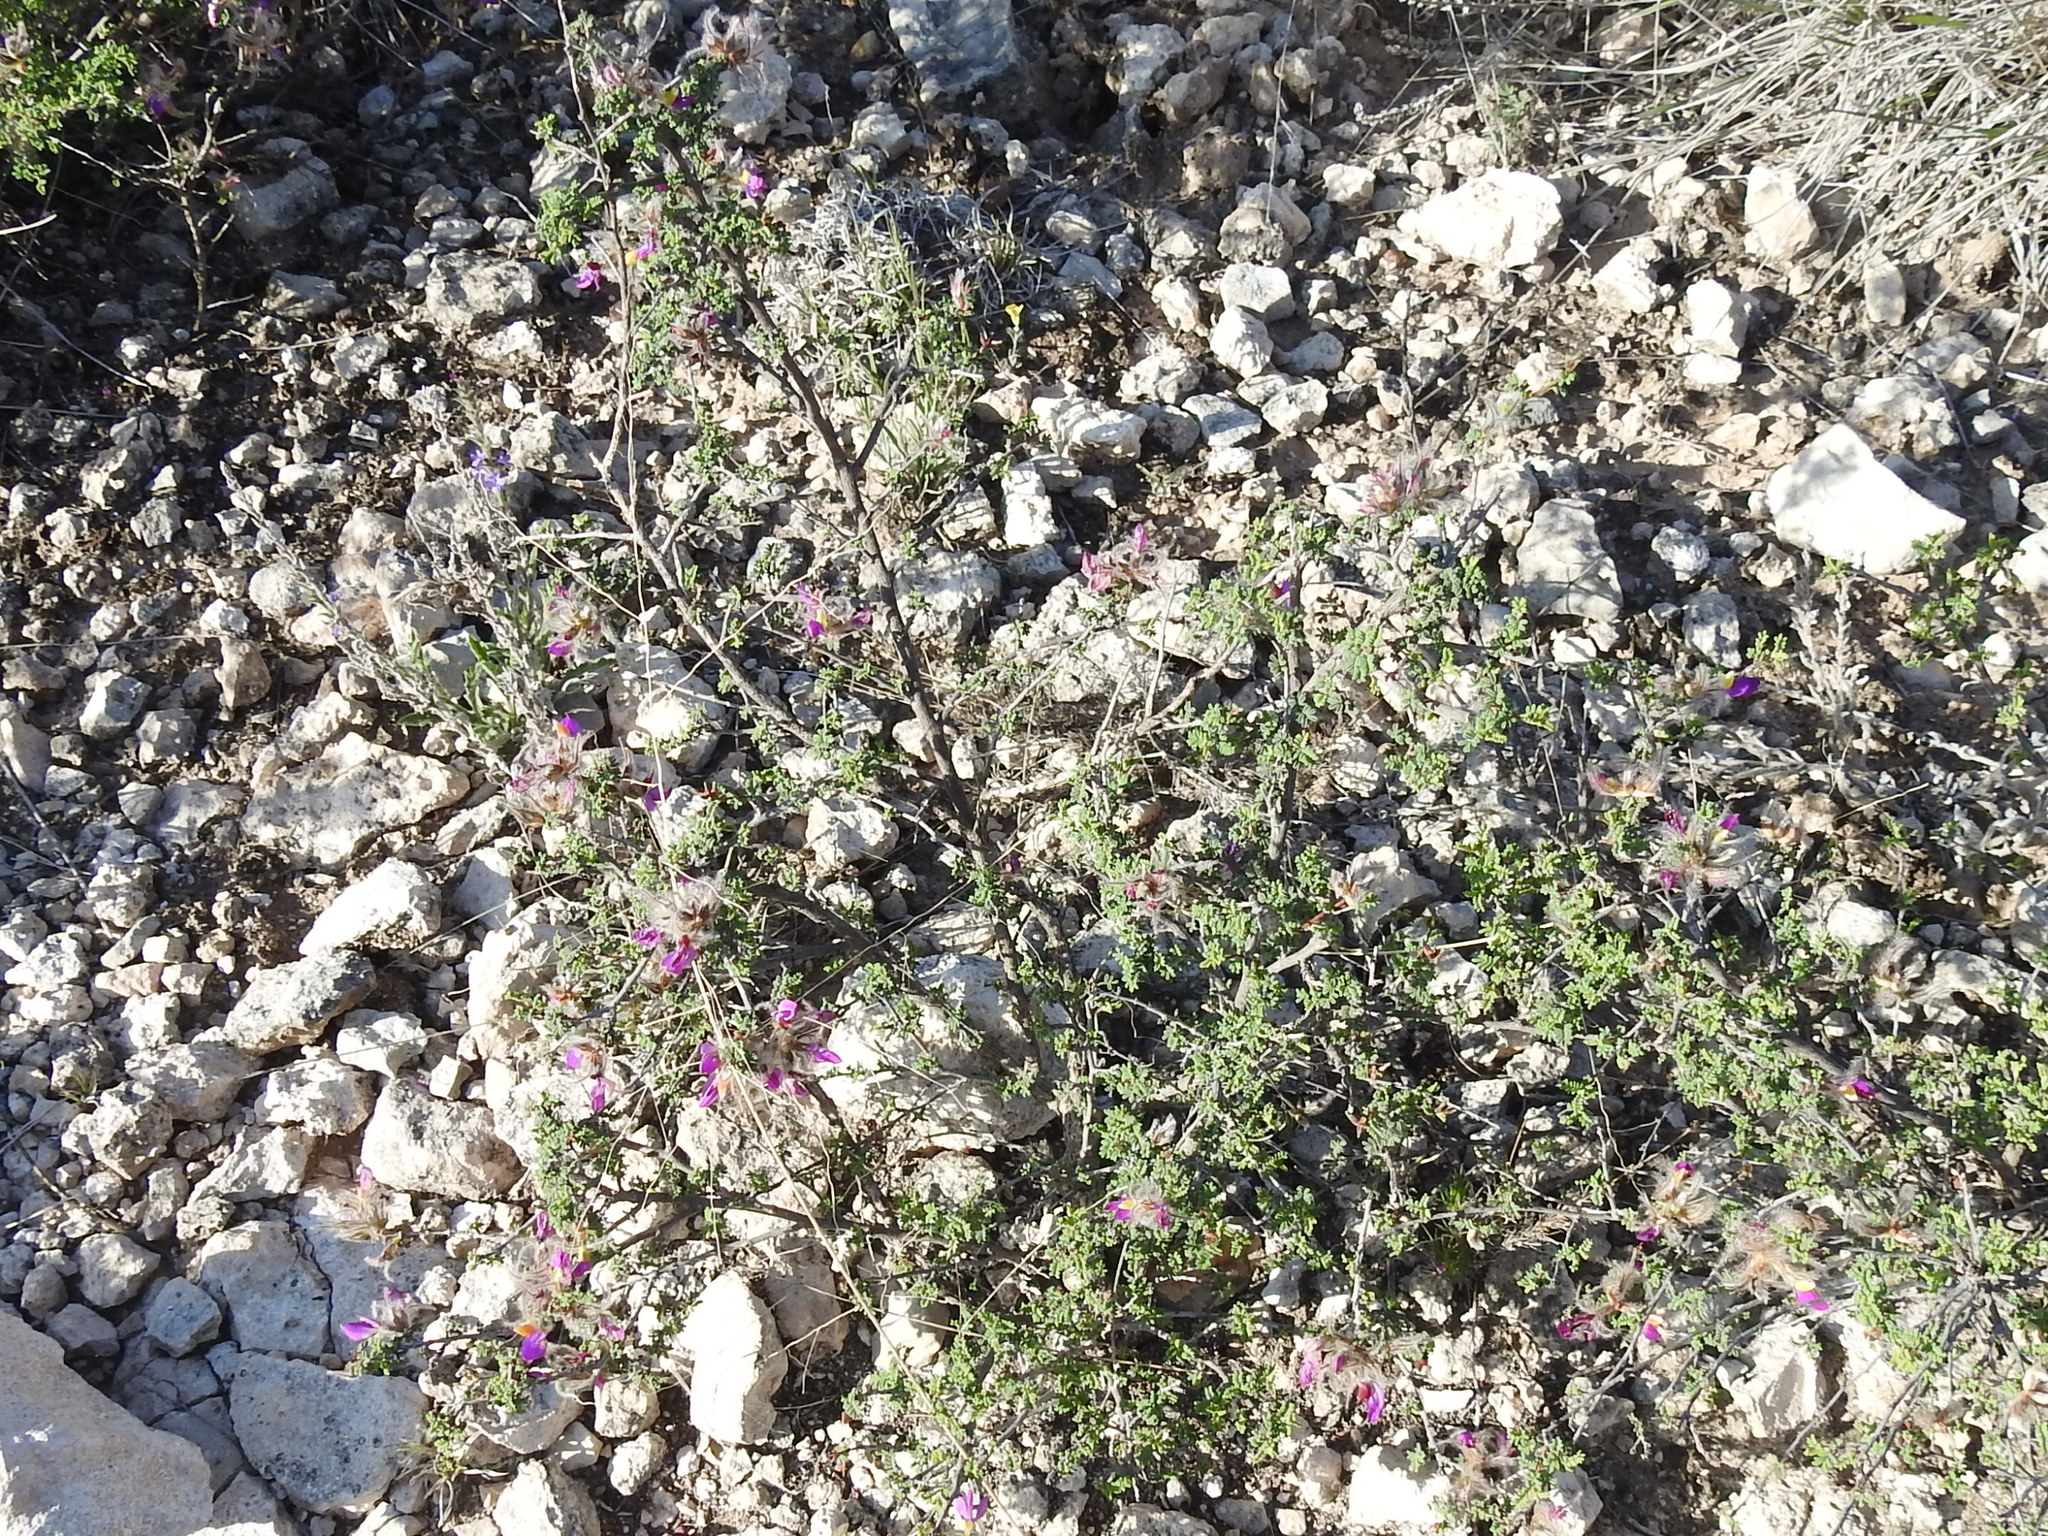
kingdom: Plantae
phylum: Tracheophyta
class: Magnoliopsida
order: Fabales
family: Fabaceae
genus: Dalea
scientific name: Dalea formosa
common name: Feather-plume dalea
